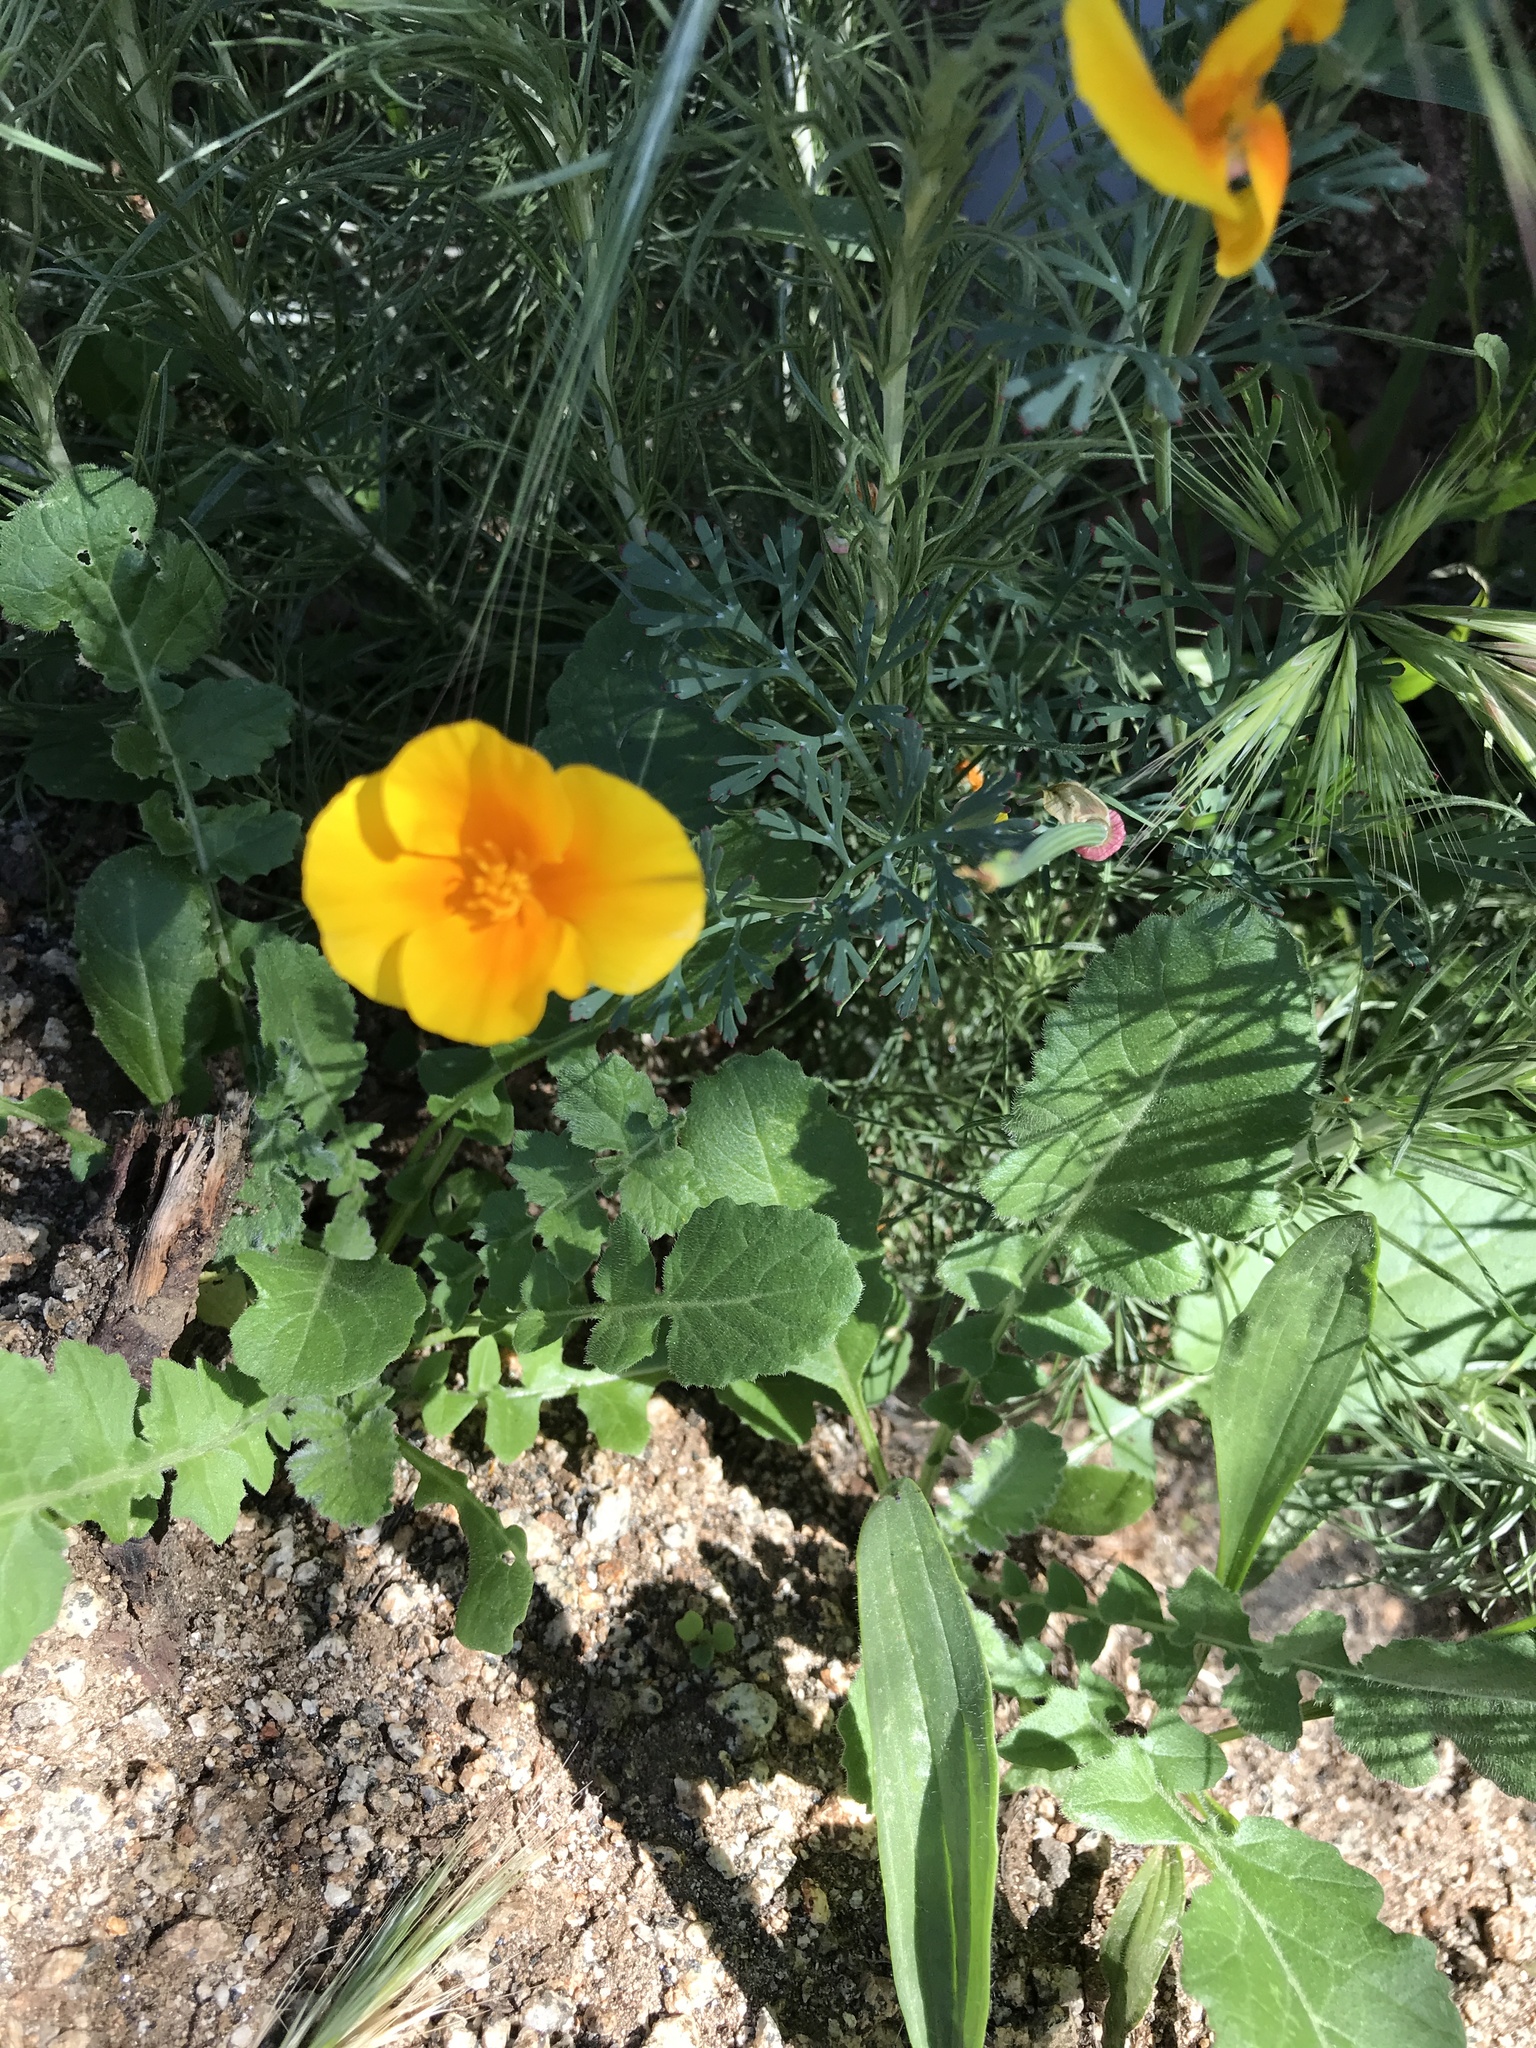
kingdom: Plantae
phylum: Tracheophyta
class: Magnoliopsida
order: Ranunculales
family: Papaveraceae
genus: Eschscholzia
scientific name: Eschscholzia californica
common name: California poppy
